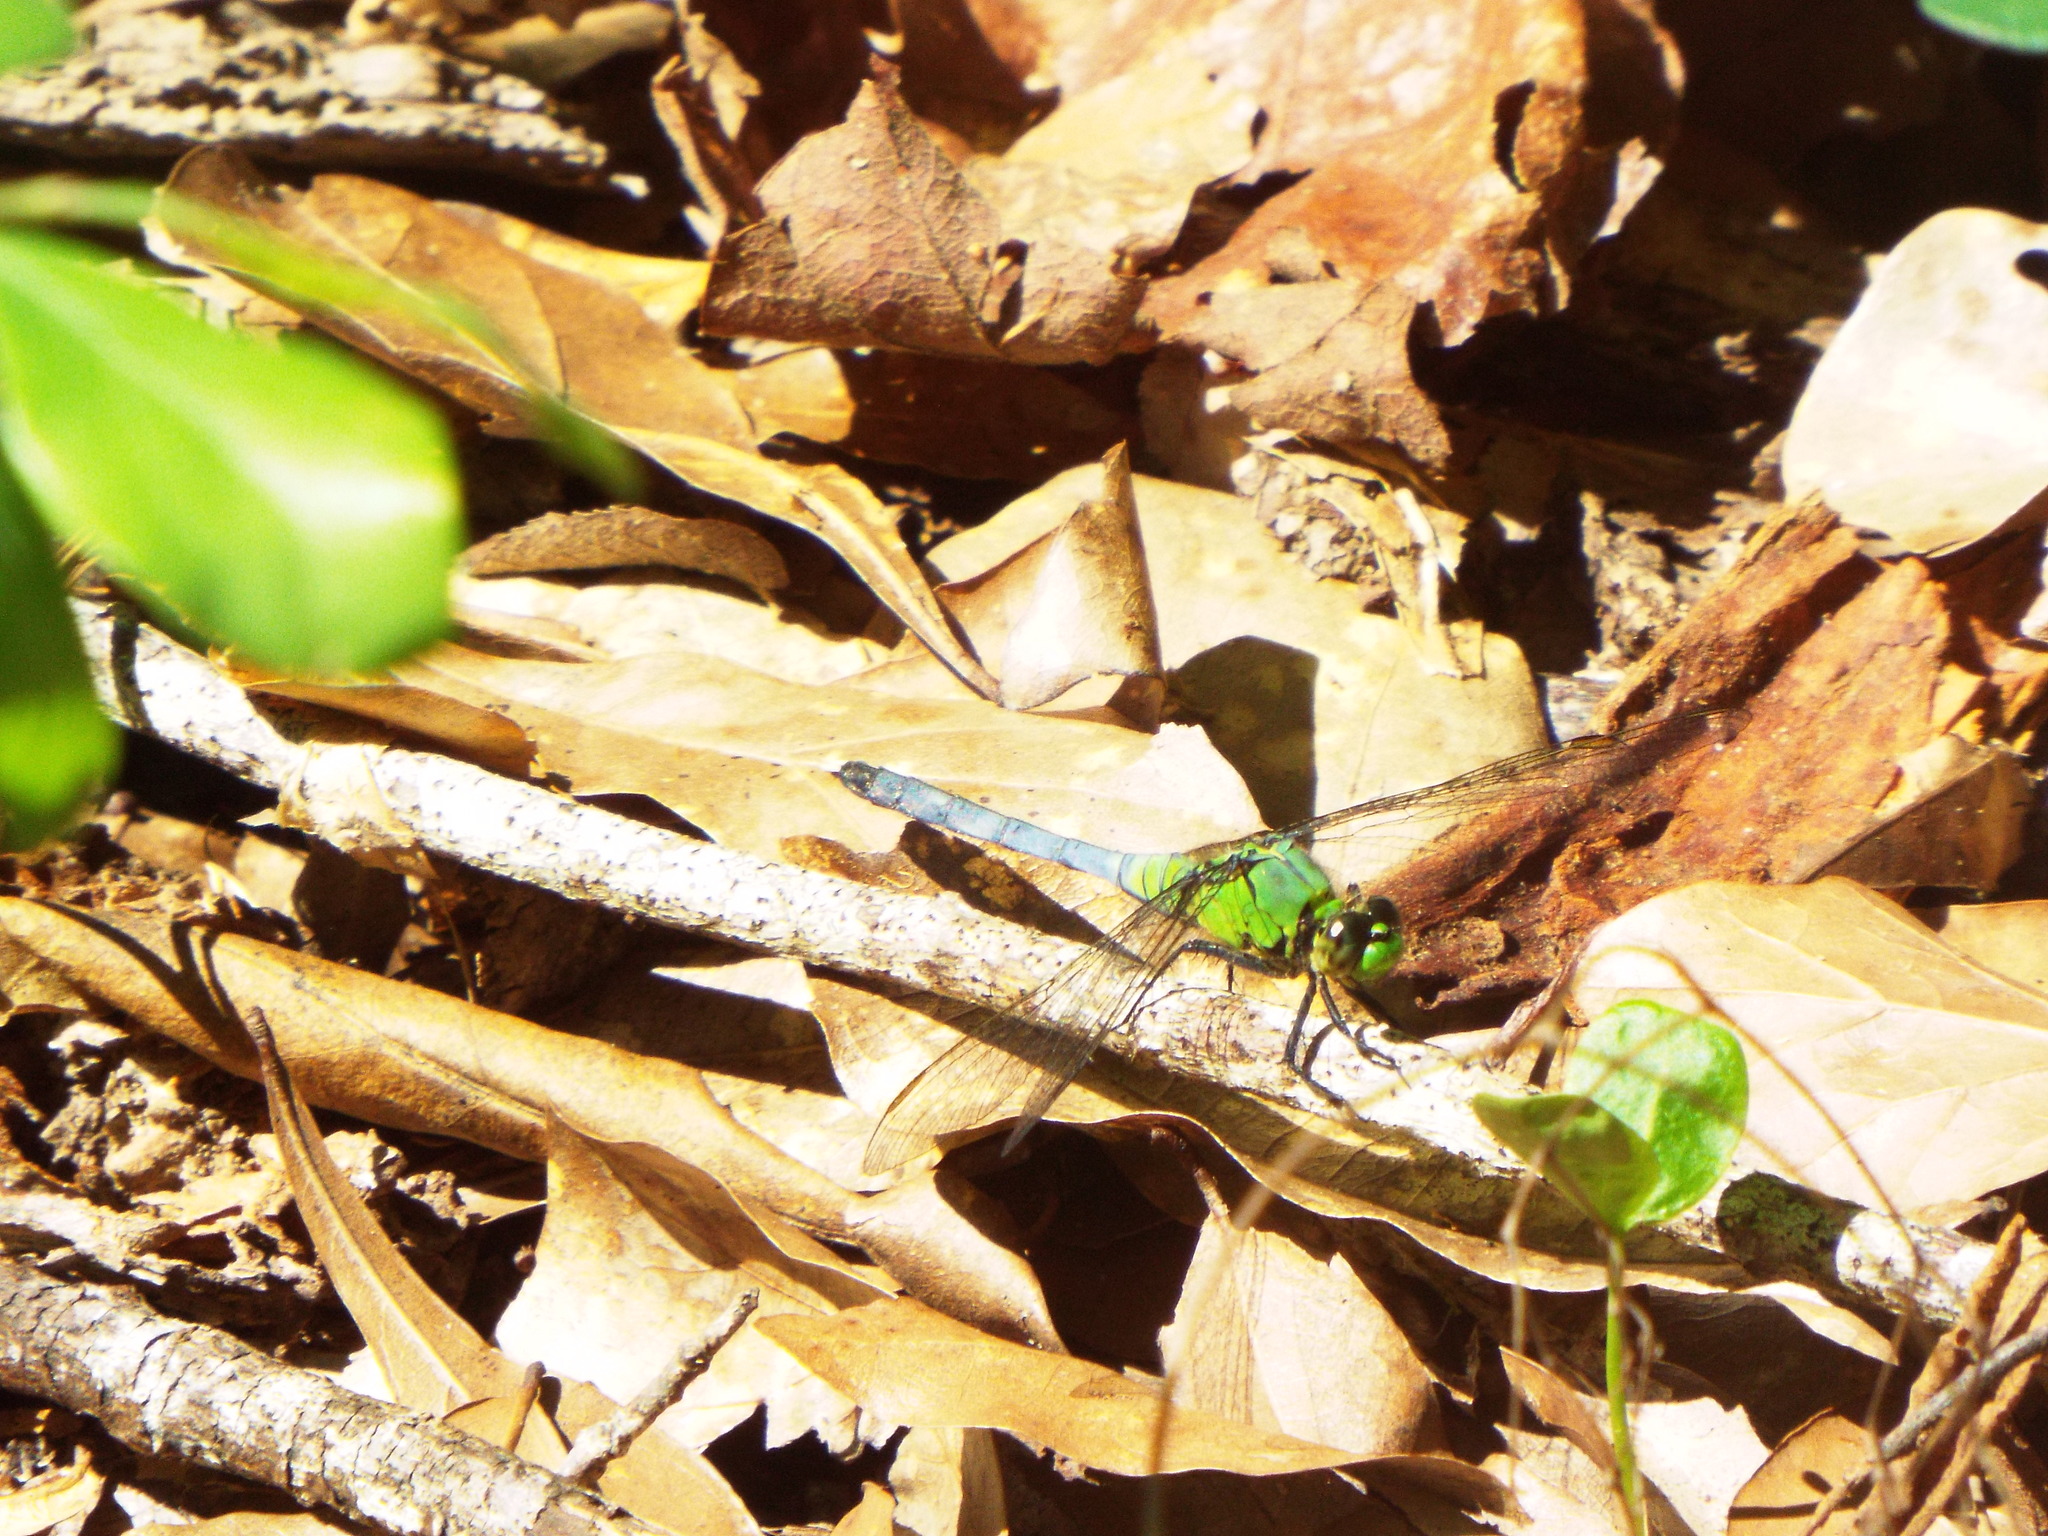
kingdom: Animalia
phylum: Arthropoda
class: Insecta
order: Odonata
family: Libellulidae
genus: Erythemis
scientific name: Erythemis simplicicollis
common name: Eastern pondhawk
